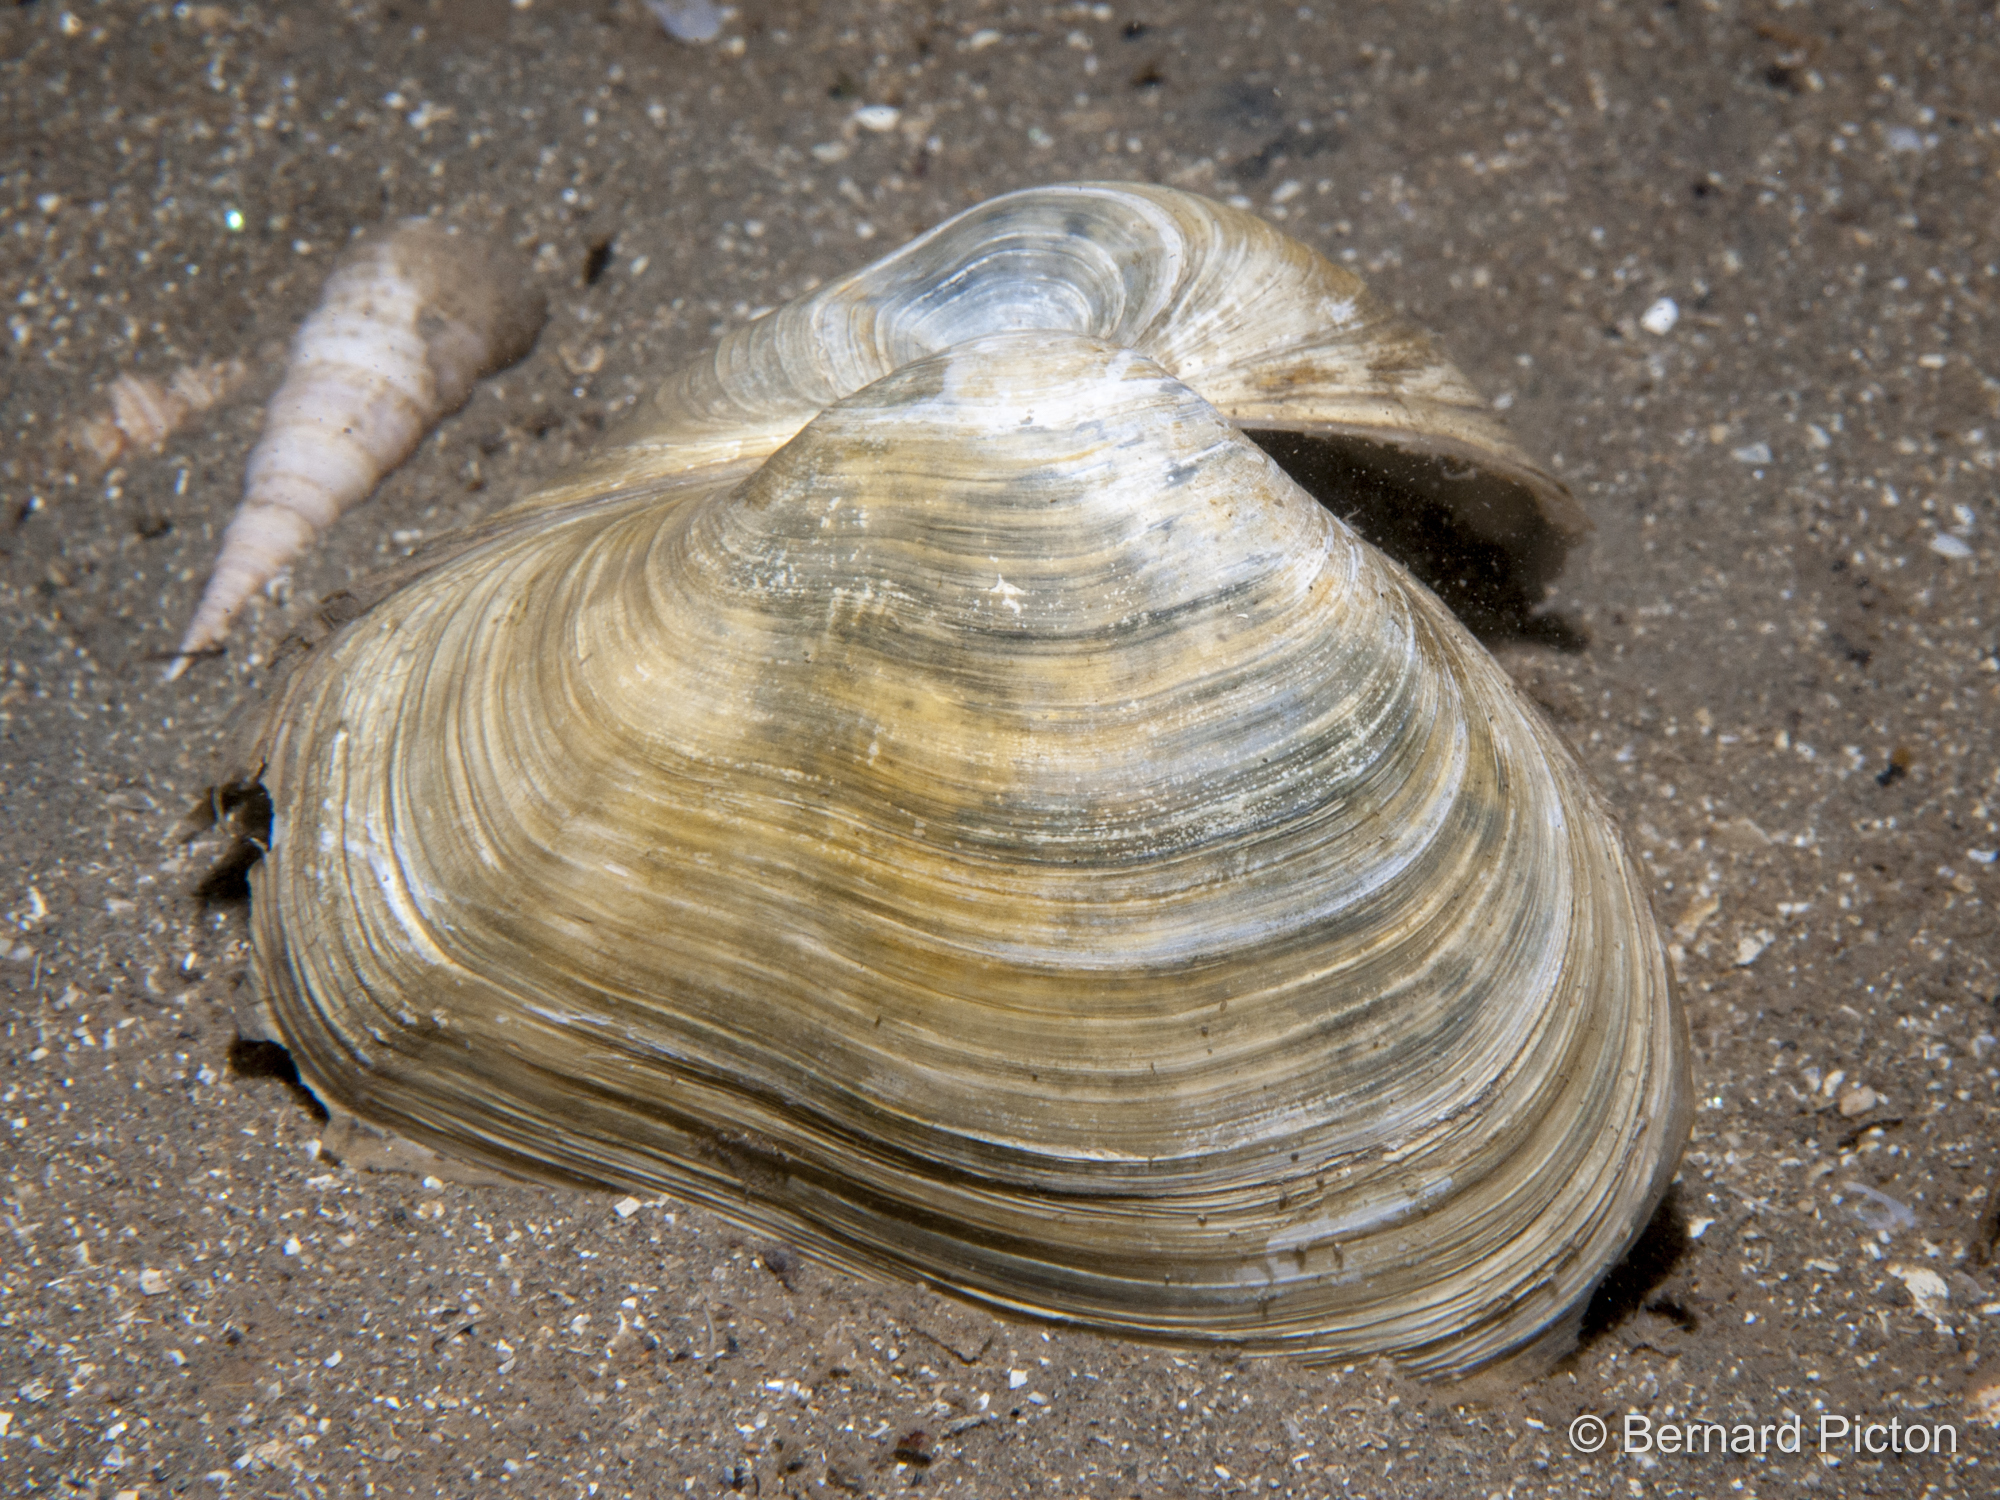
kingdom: Animalia
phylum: Mollusca
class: Bivalvia
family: Thraciidae
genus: Thracia
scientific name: Thracia convexa
